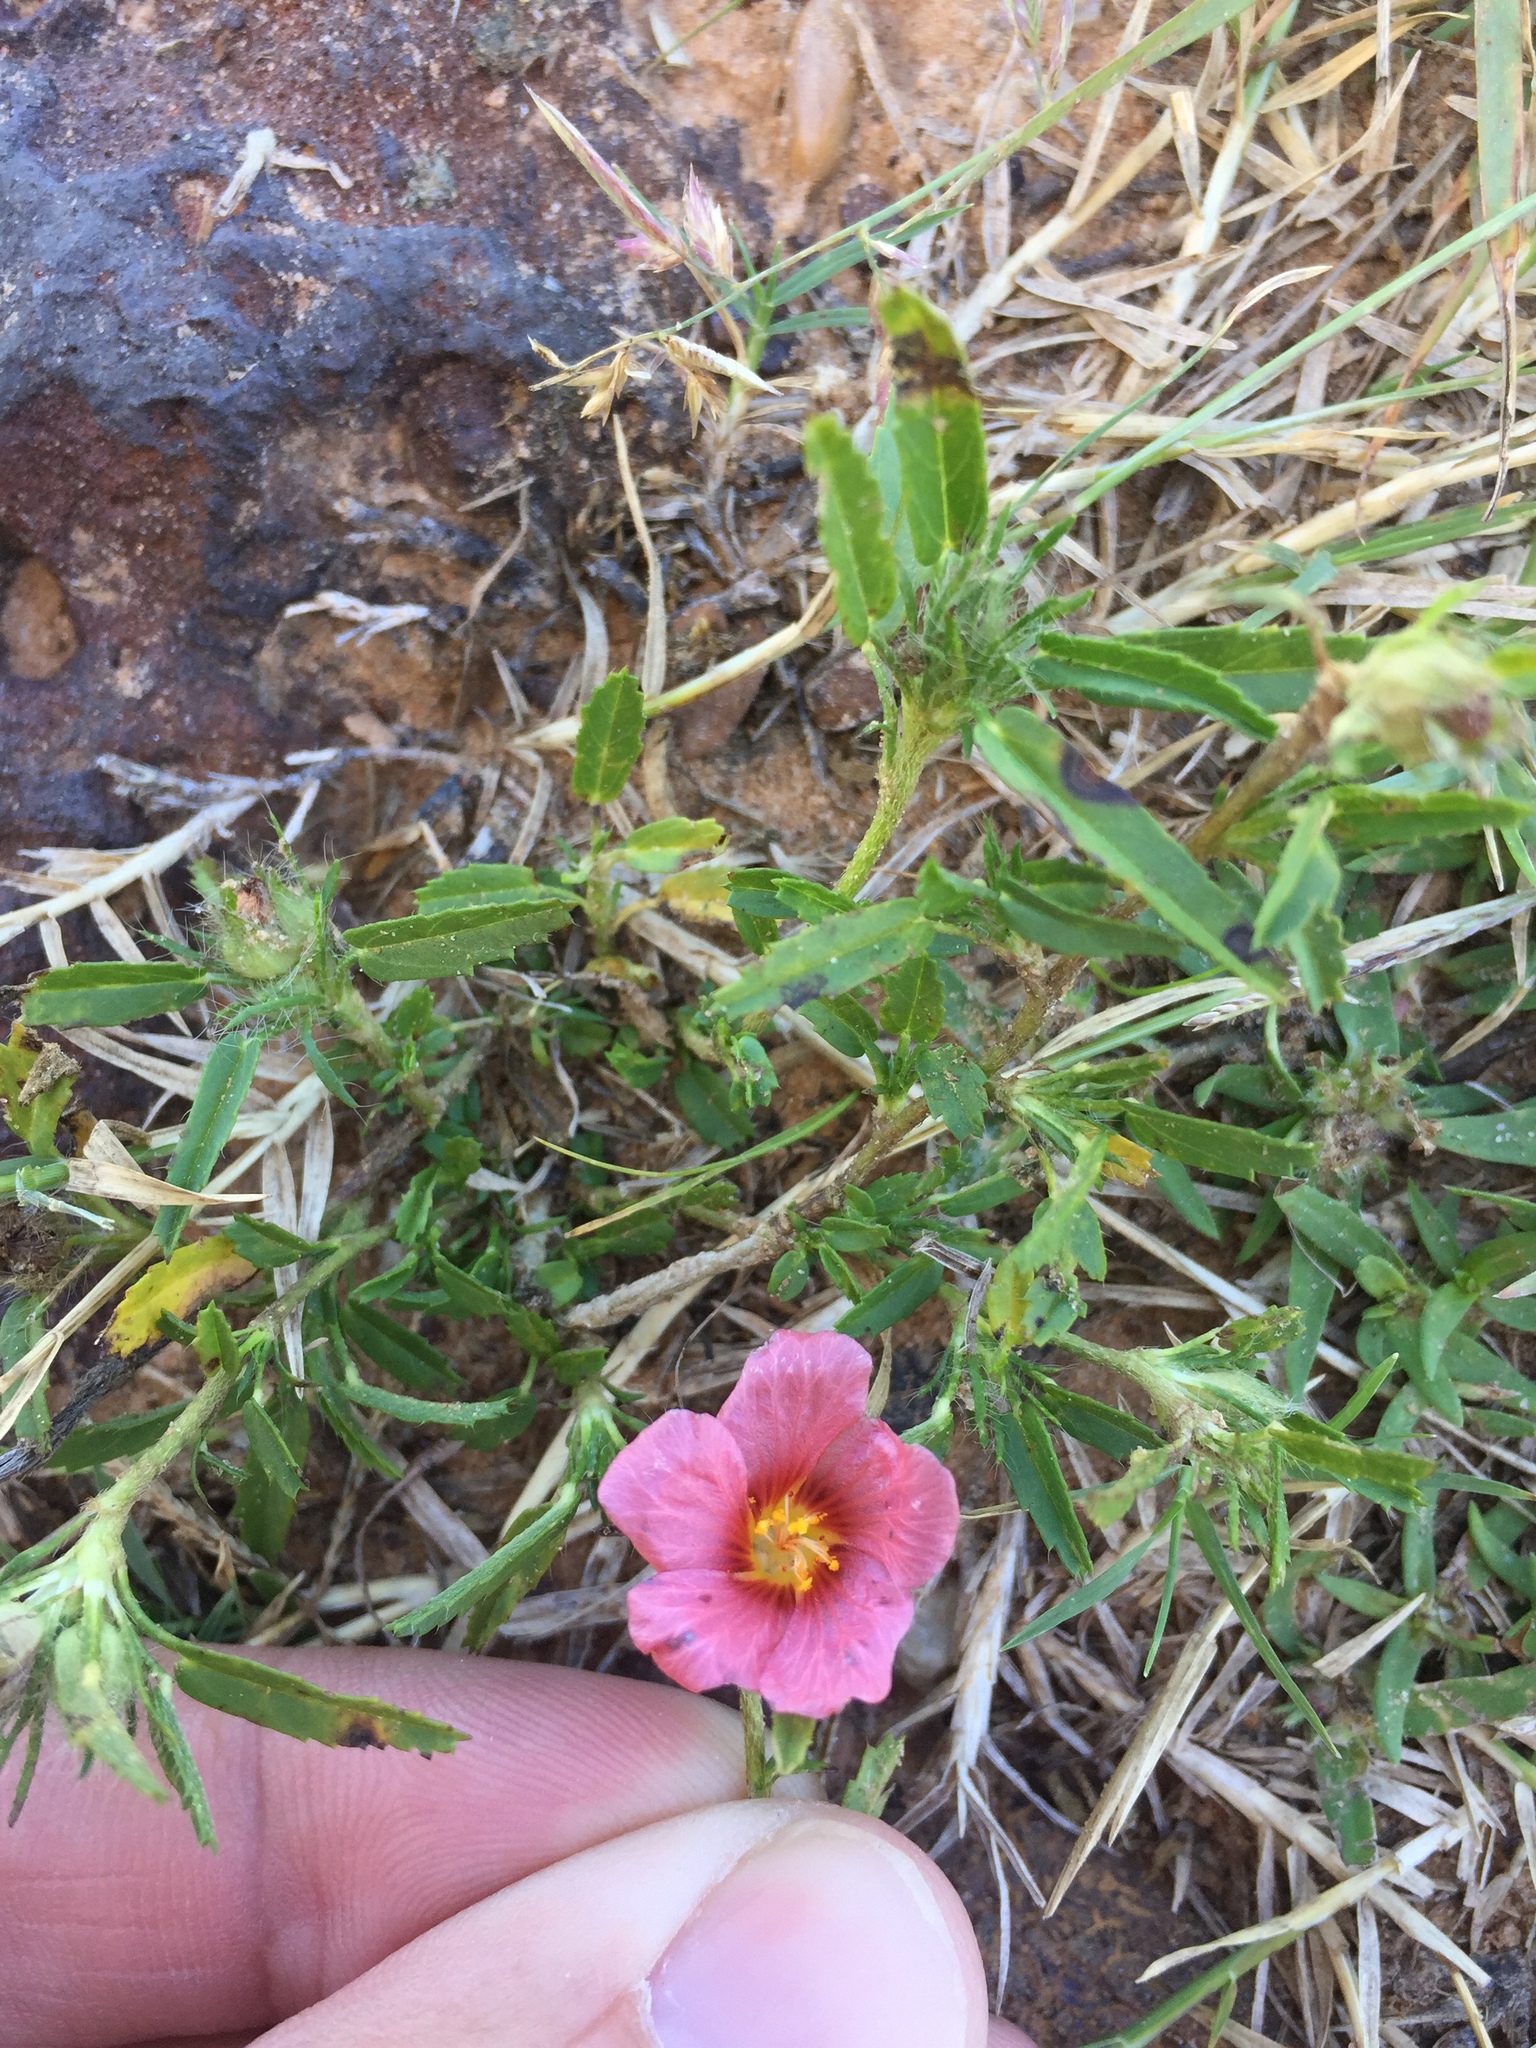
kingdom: Plantae
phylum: Tracheophyta
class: Magnoliopsida
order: Malvales
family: Malvaceae
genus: Sida
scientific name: Sida ciliaris
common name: Bracted fanpetals
